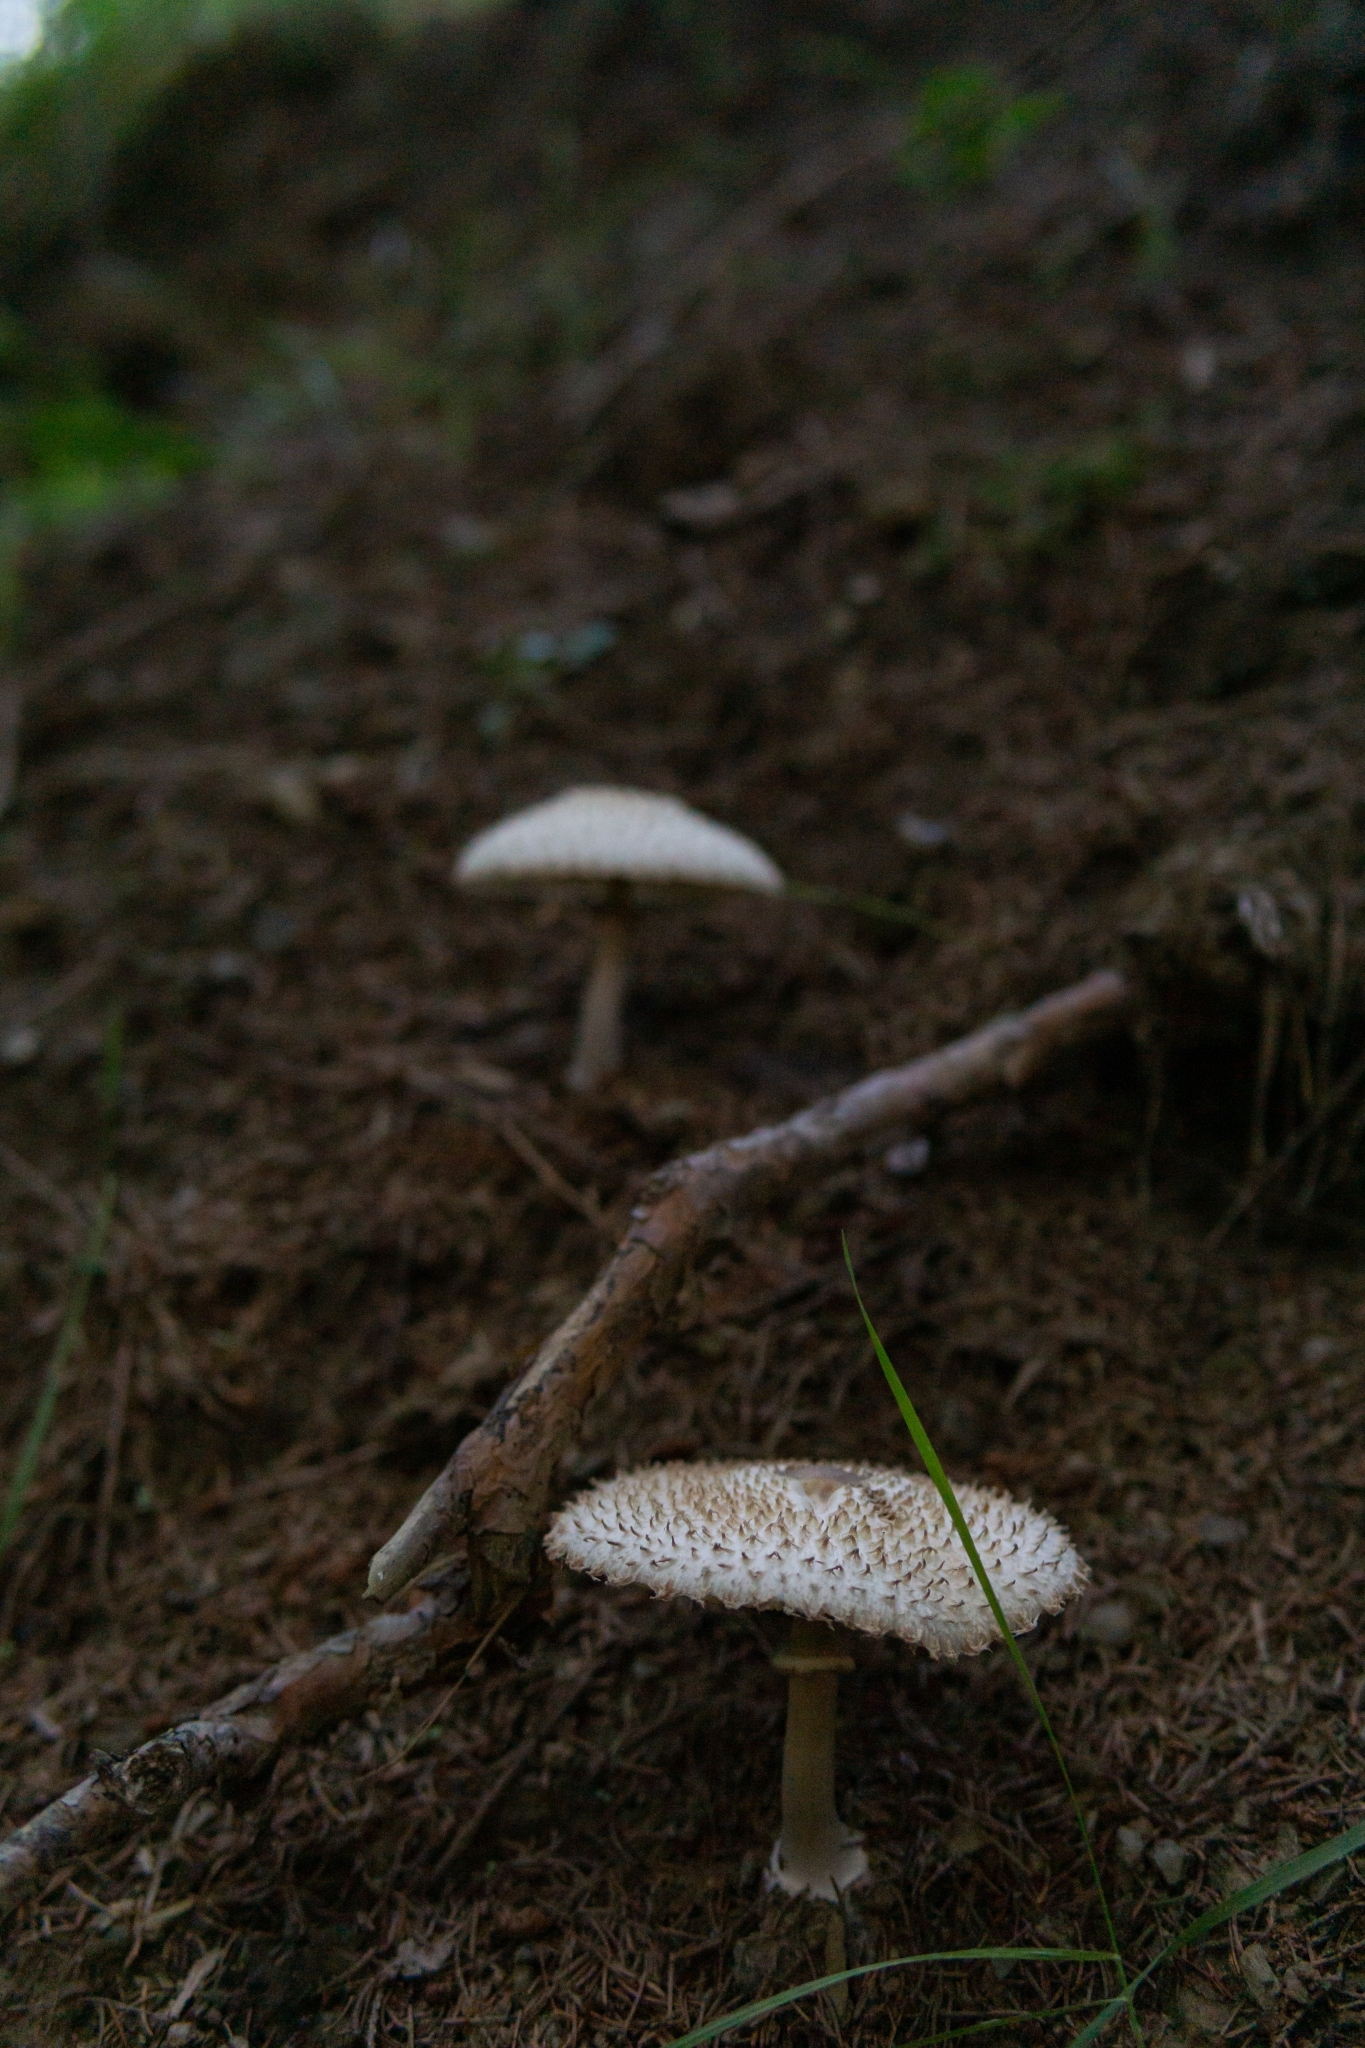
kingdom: Fungi
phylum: Basidiomycota
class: Agaricomycetes
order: Agaricales
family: Agaricaceae
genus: Leucoagaricus
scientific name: Leucoagaricus nympharum
